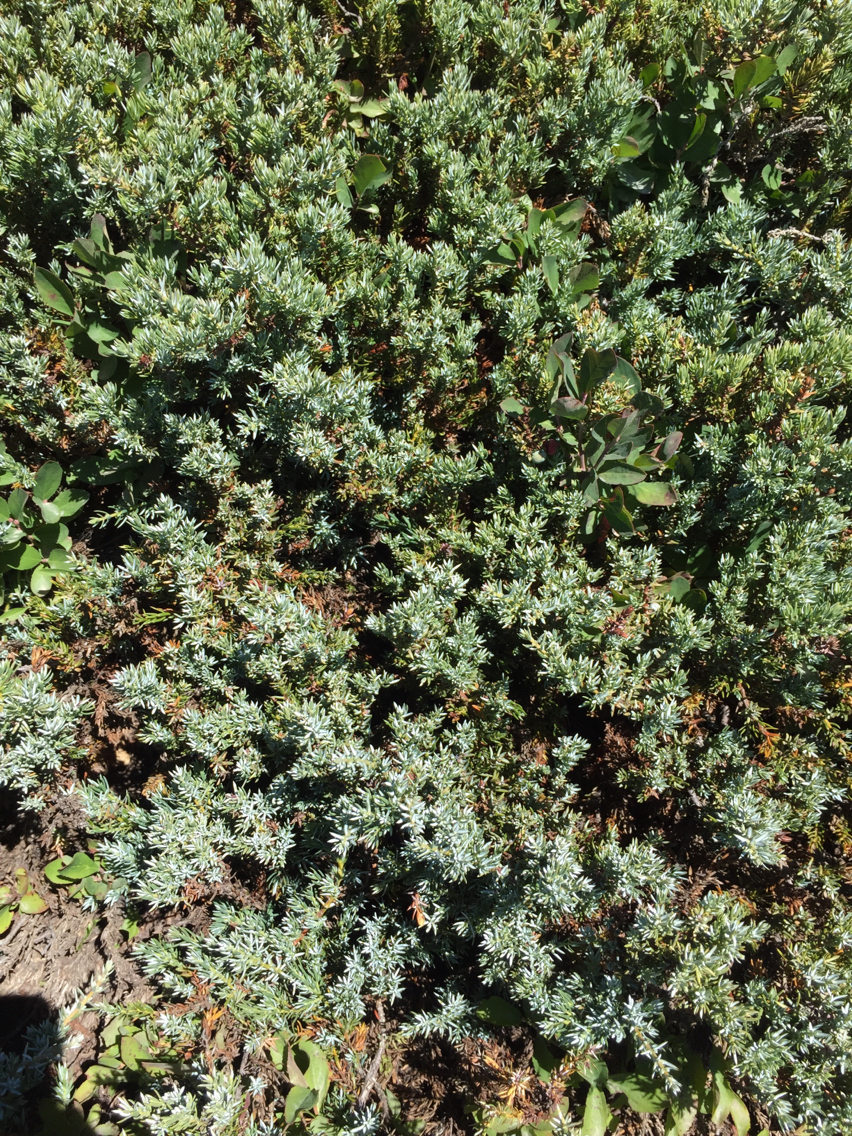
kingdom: Plantae
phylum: Tracheophyta
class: Pinopsida
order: Pinales
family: Cupressaceae
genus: Juniperus
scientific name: Juniperus communis
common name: Common juniper
